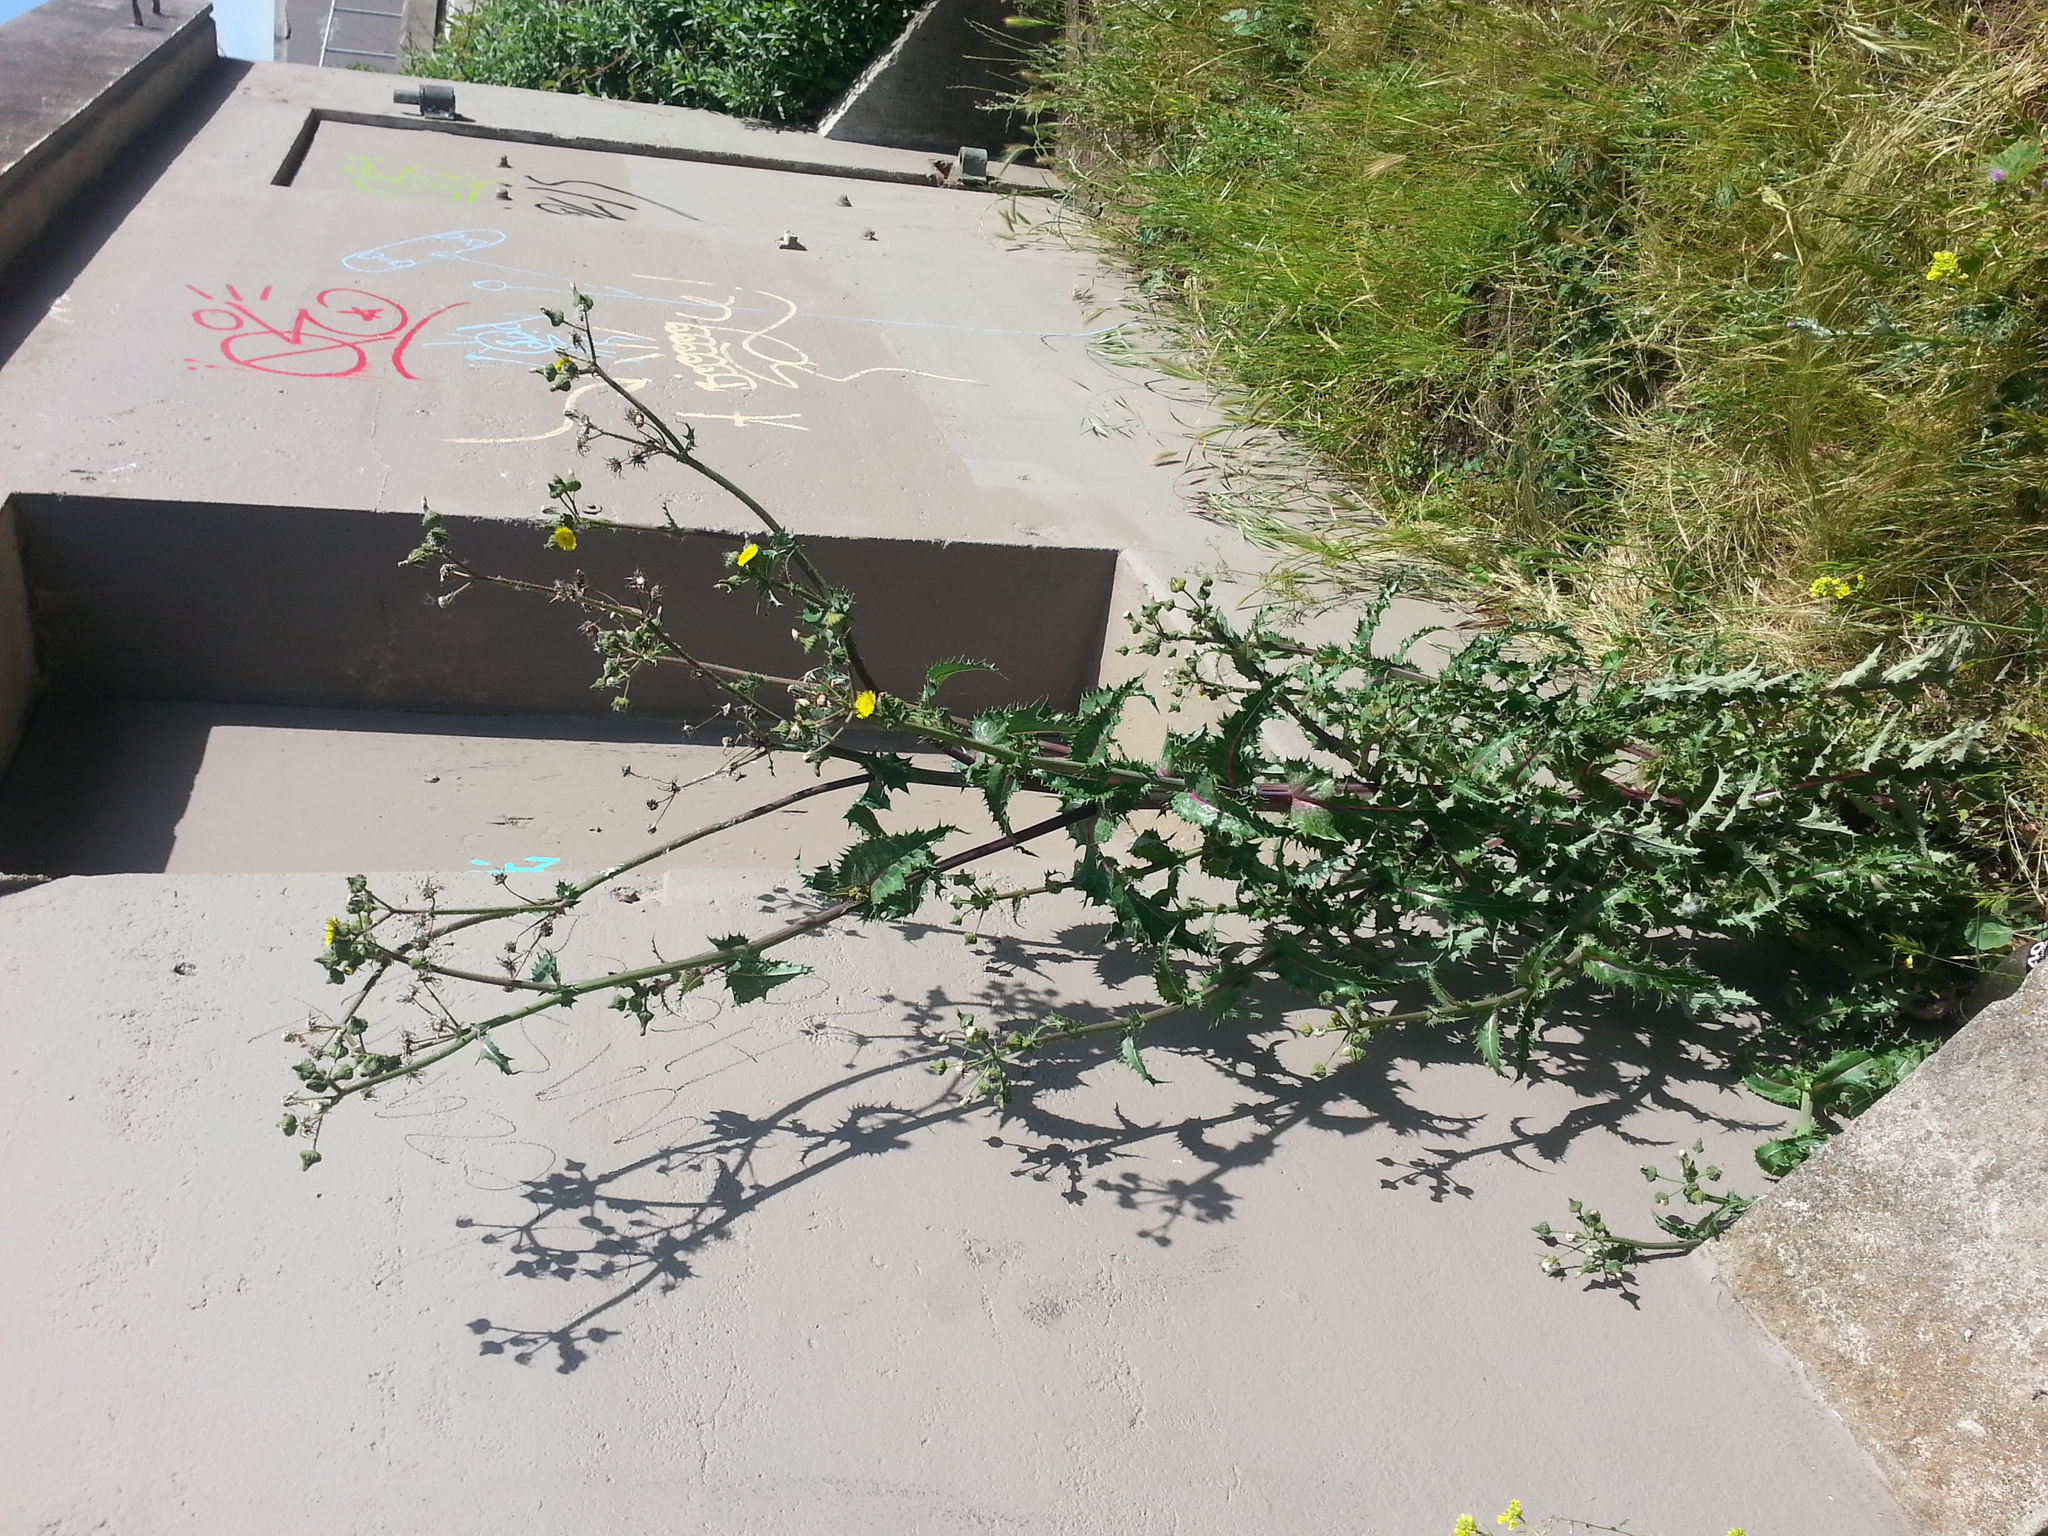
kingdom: Plantae
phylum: Tracheophyta
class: Magnoliopsida
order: Asterales
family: Asteraceae
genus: Sonchus
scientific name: Sonchus oleraceus
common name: Common sowthistle
